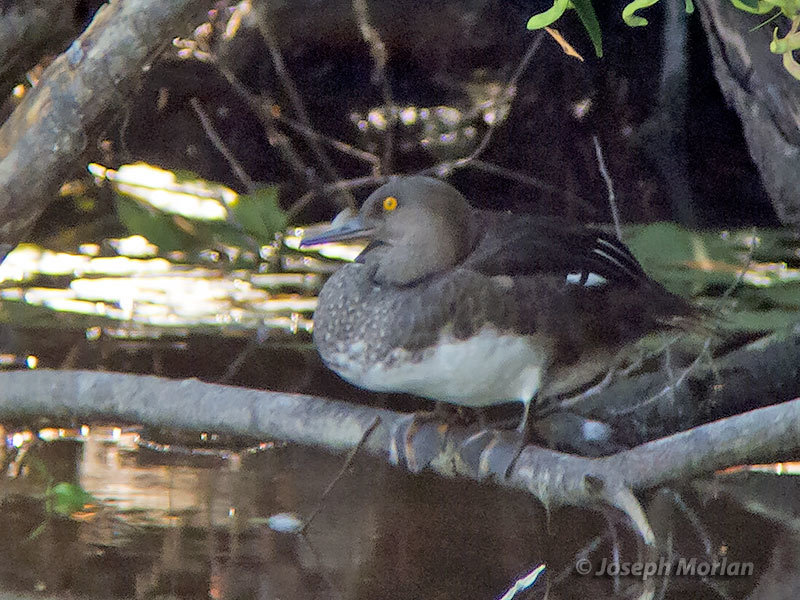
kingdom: Animalia
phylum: Chordata
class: Aves
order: Anseriformes
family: Anatidae
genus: Lophodytes
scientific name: Lophodytes cucullatus
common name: Hooded merganser
